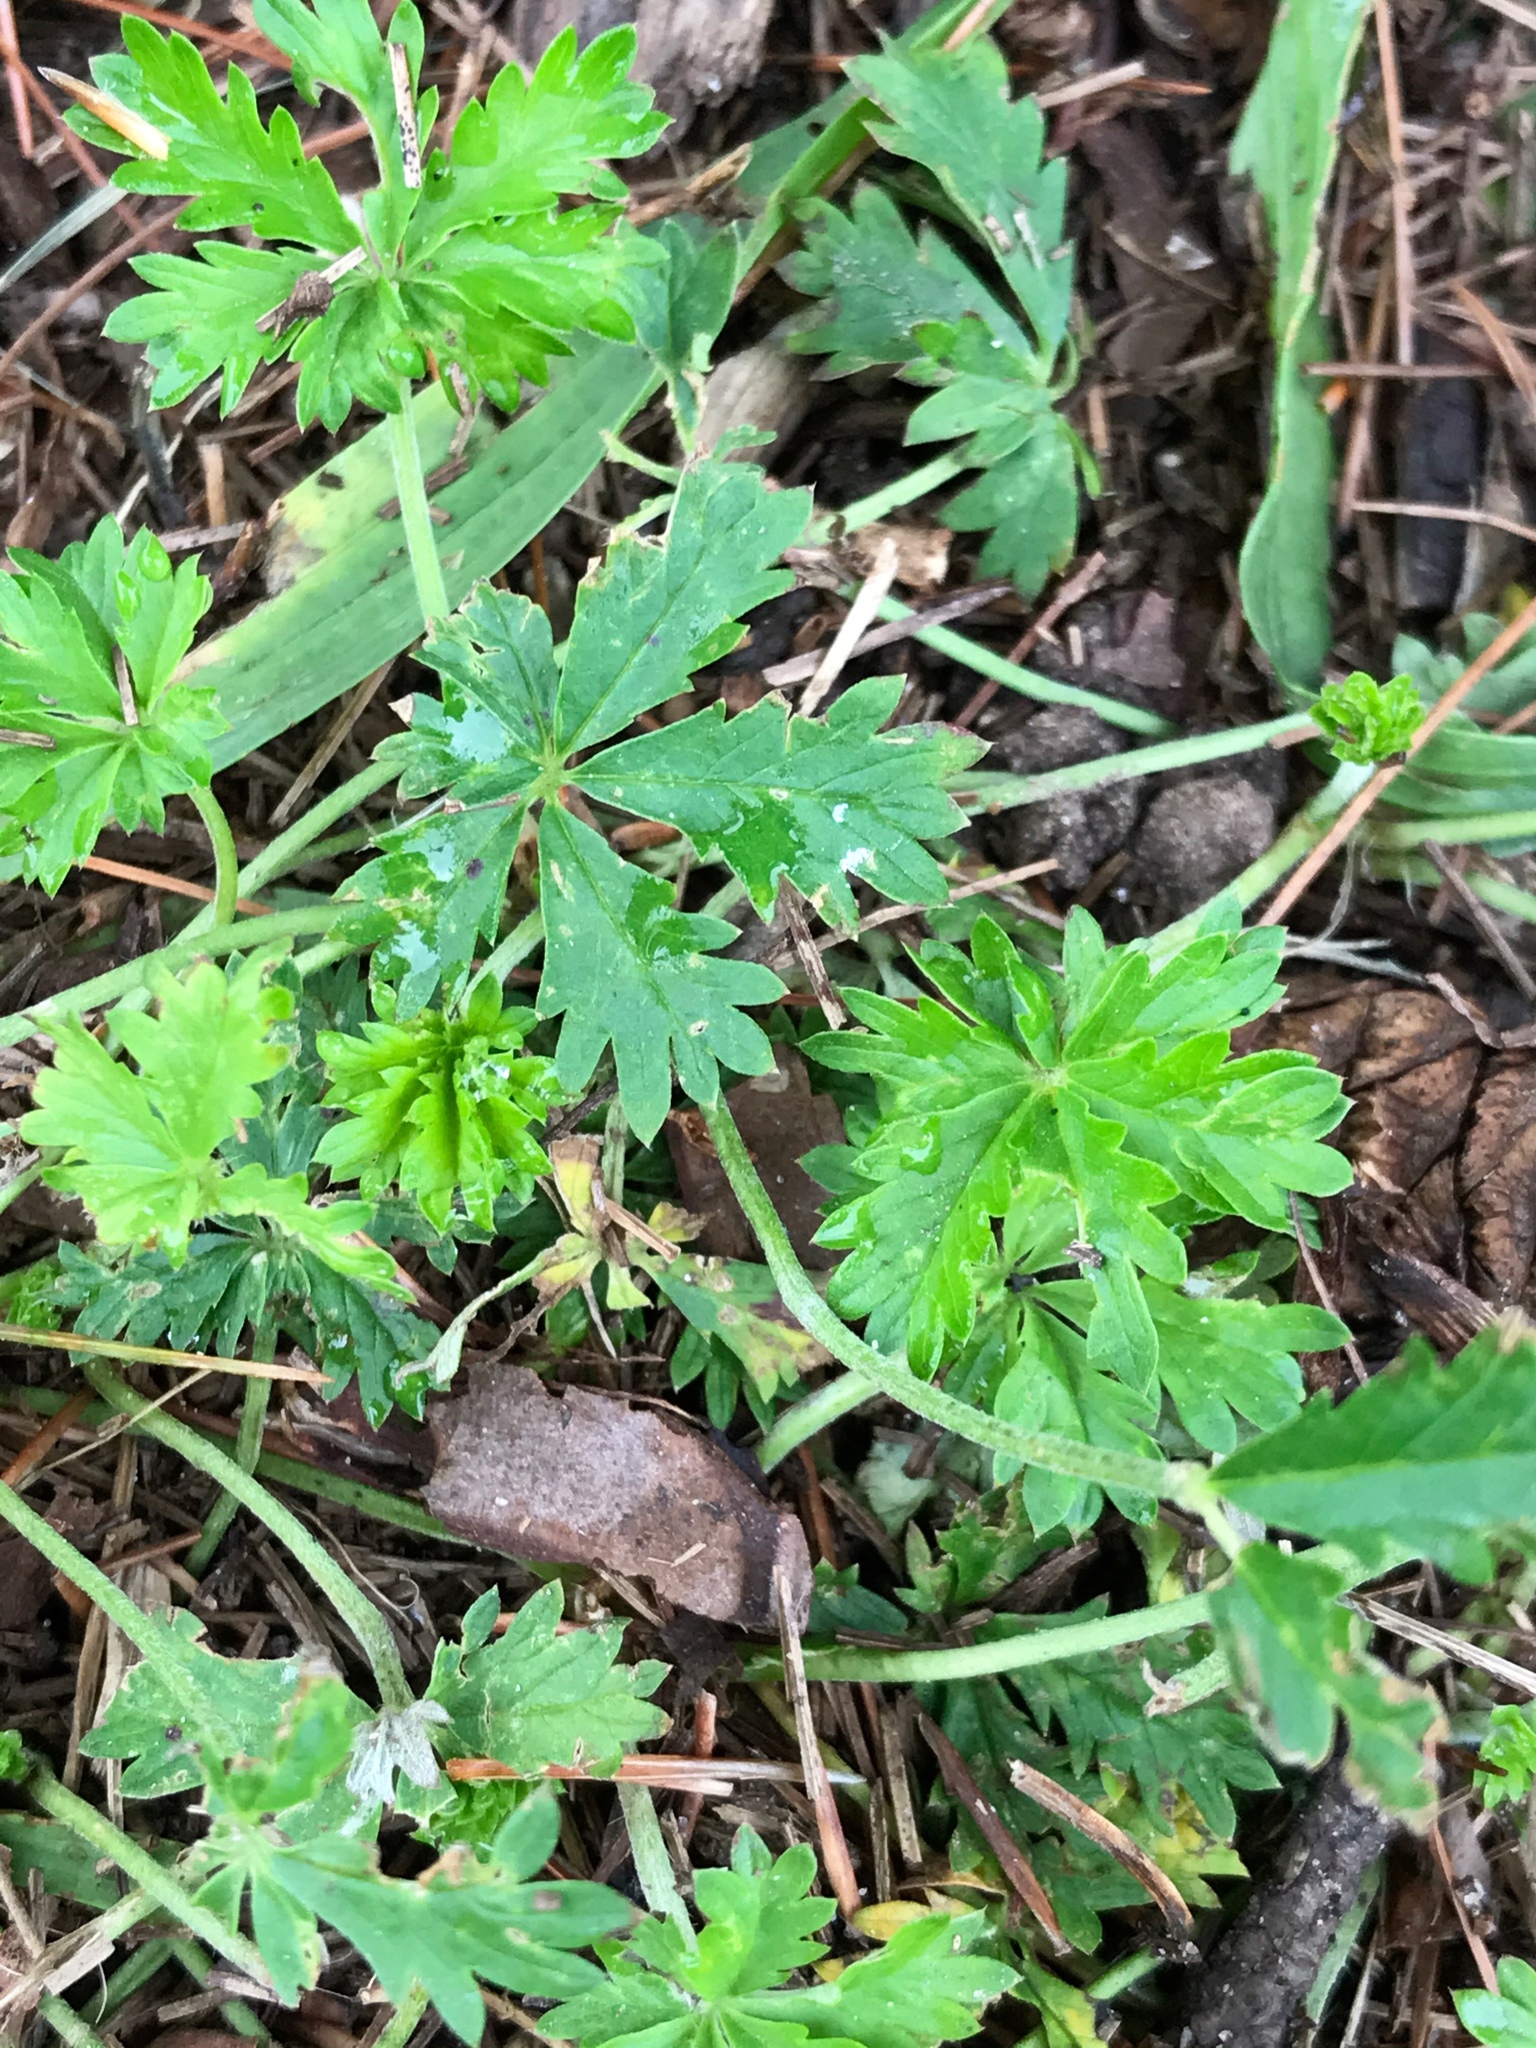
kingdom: Plantae
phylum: Tracheophyta
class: Magnoliopsida
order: Rosales
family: Rosaceae
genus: Potentilla
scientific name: Potentilla argentea
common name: Hoary cinquefoil
